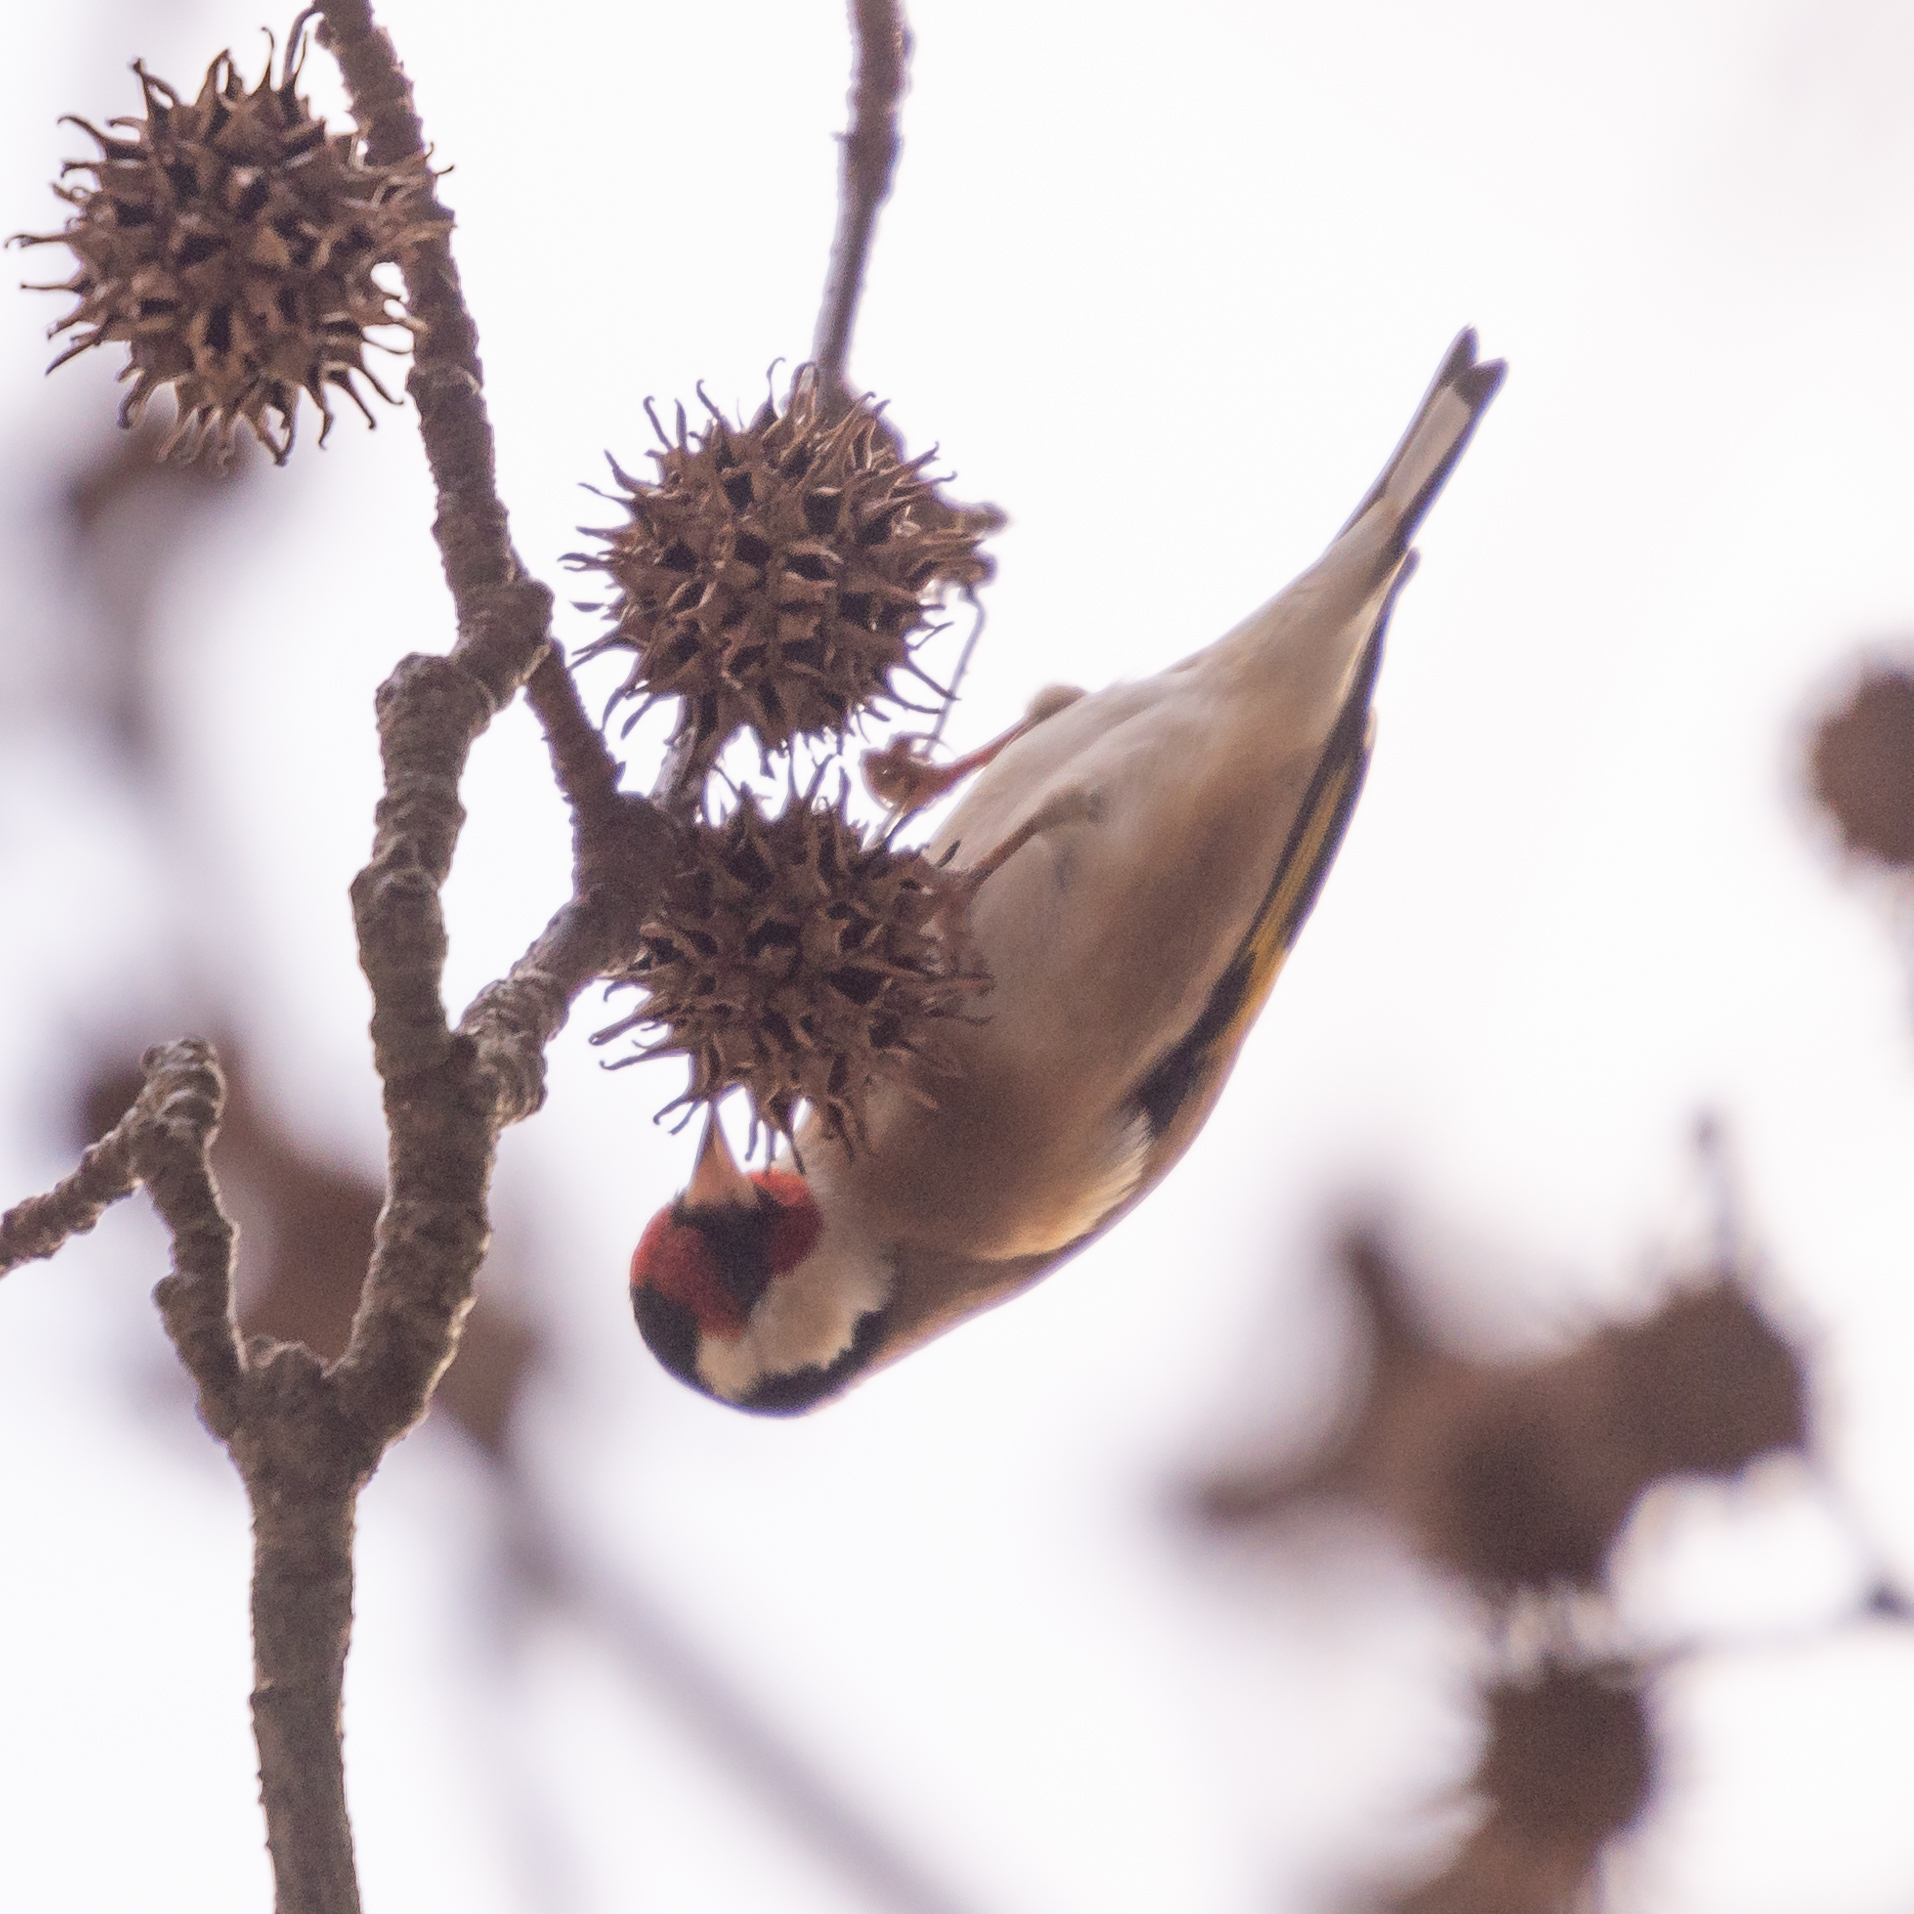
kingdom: Animalia
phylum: Chordata
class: Aves
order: Passeriformes
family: Fringillidae
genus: Carduelis
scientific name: Carduelis carduelis
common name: European goldfinch
